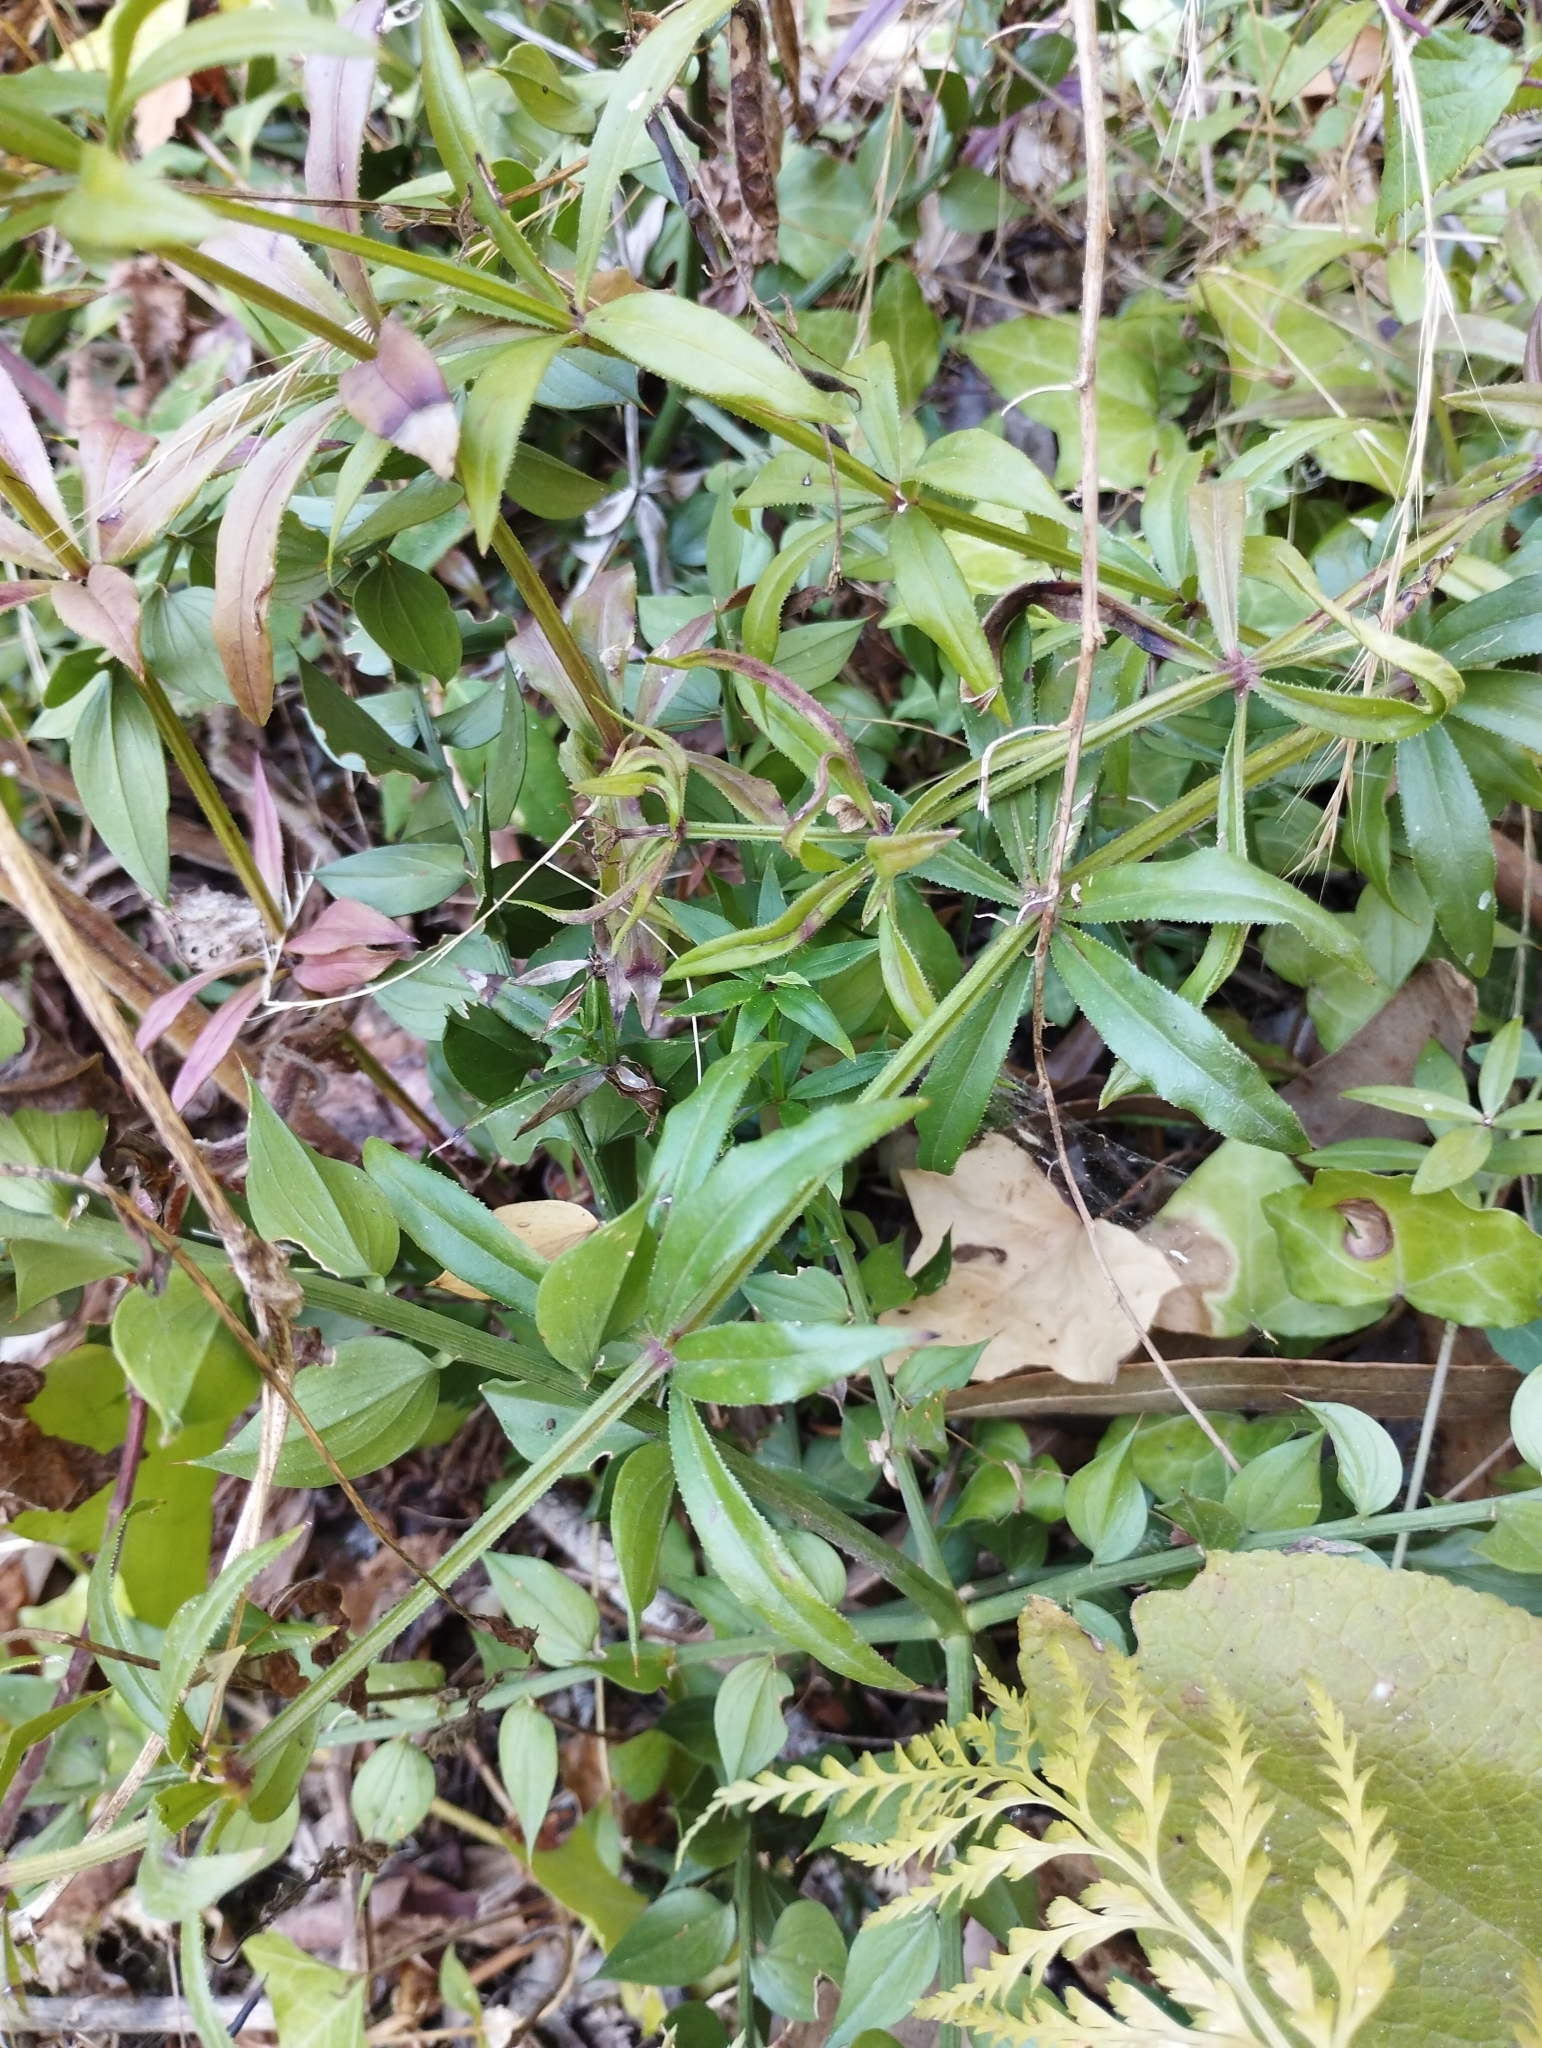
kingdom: Plantae
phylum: Tracheophyta
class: Magnoliopsida
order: Gentianales
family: Rubiaceae
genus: Rubia
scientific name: Rubia peregrina
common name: Wild madder
